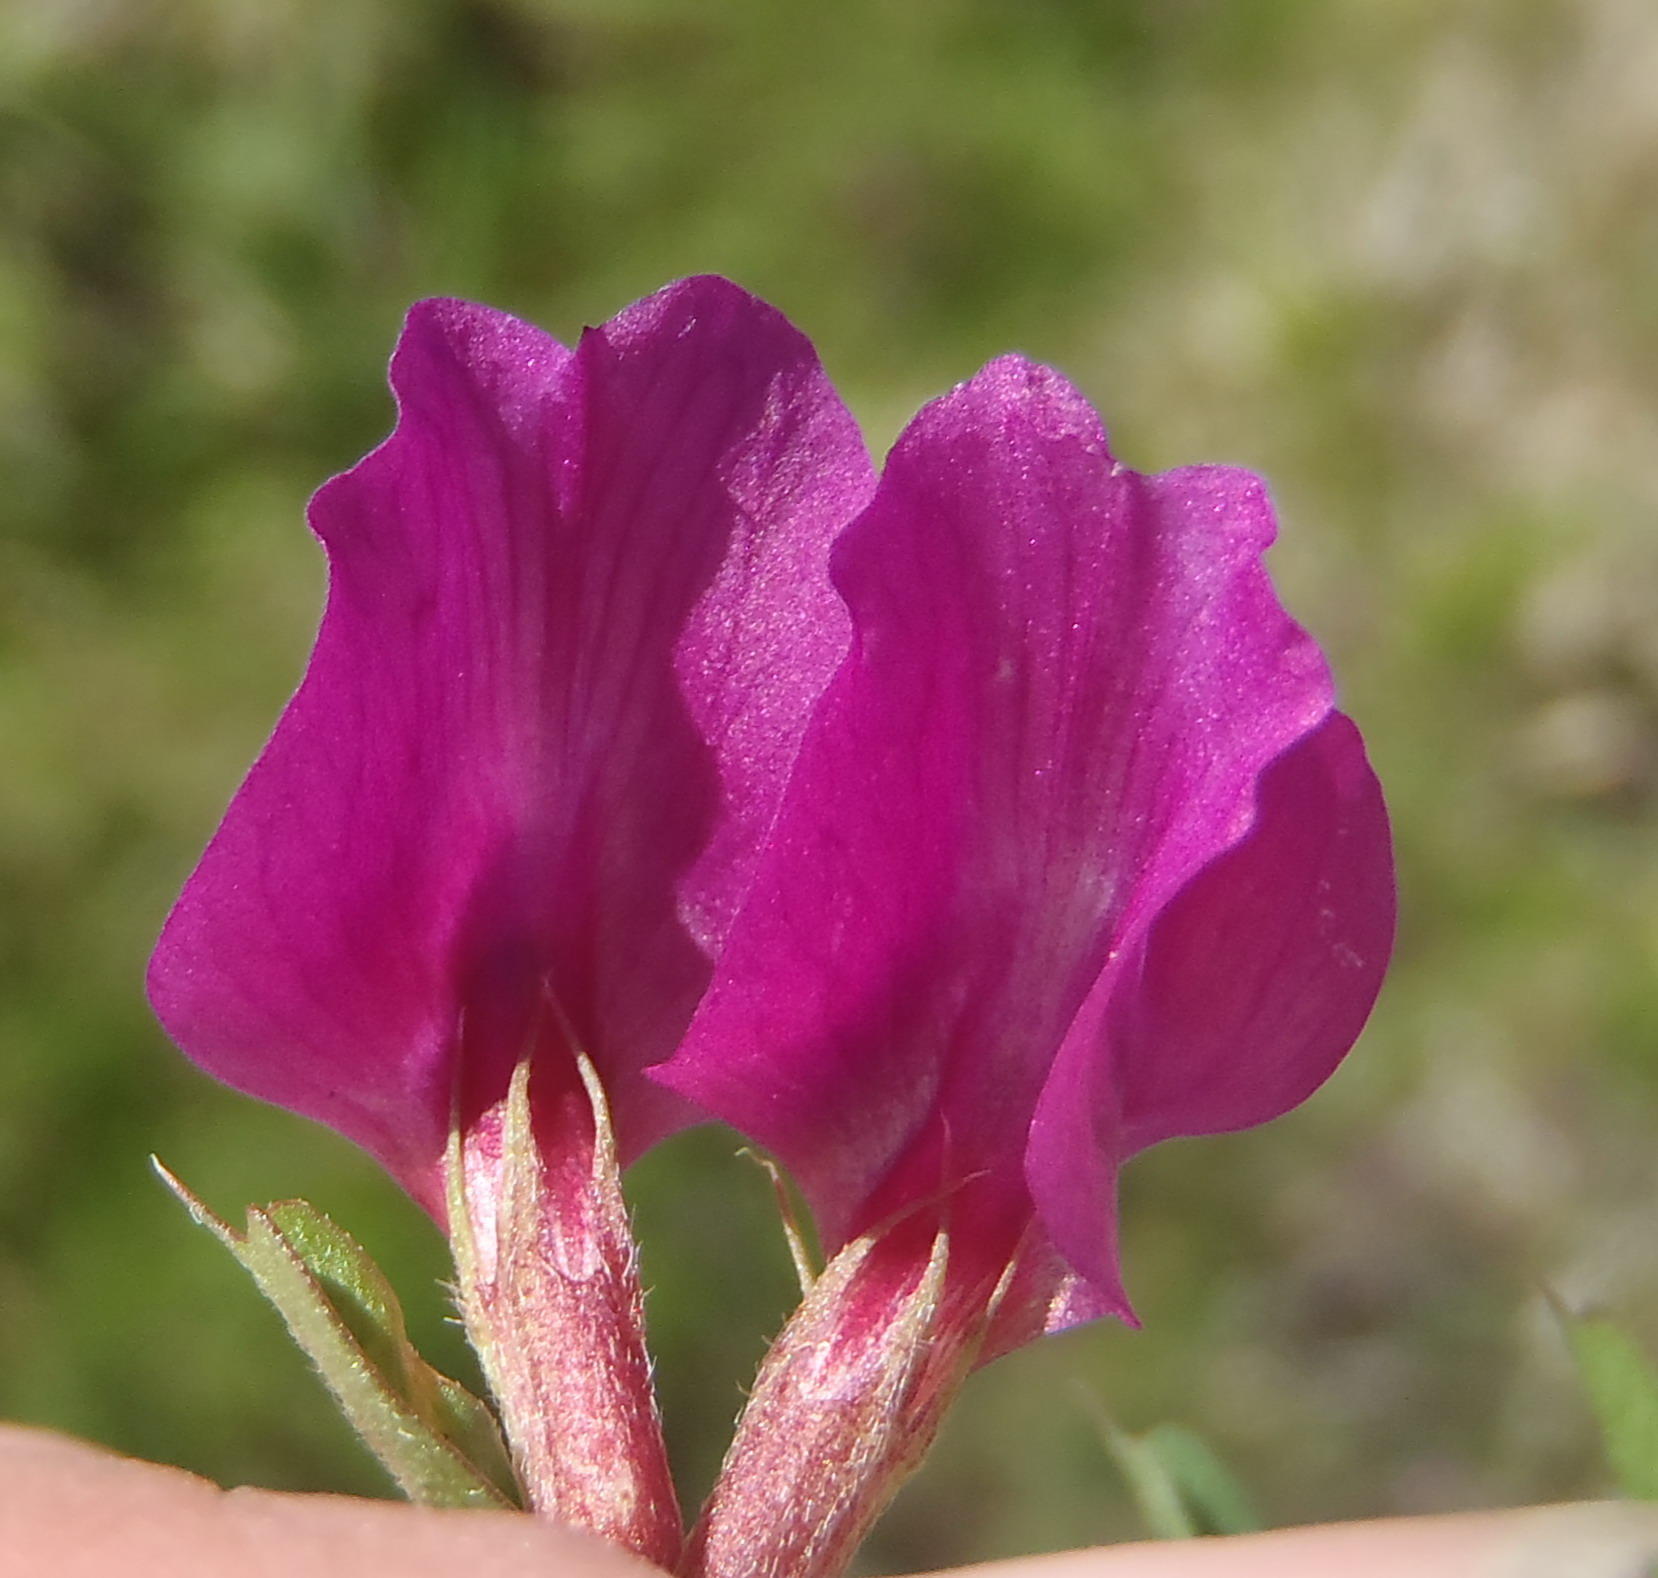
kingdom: Plantae
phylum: Tracheophyta
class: Magnoliopsida
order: Fabales
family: Fabaceae
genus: Vicia
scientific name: Vicia sativa
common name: Garden vetch
